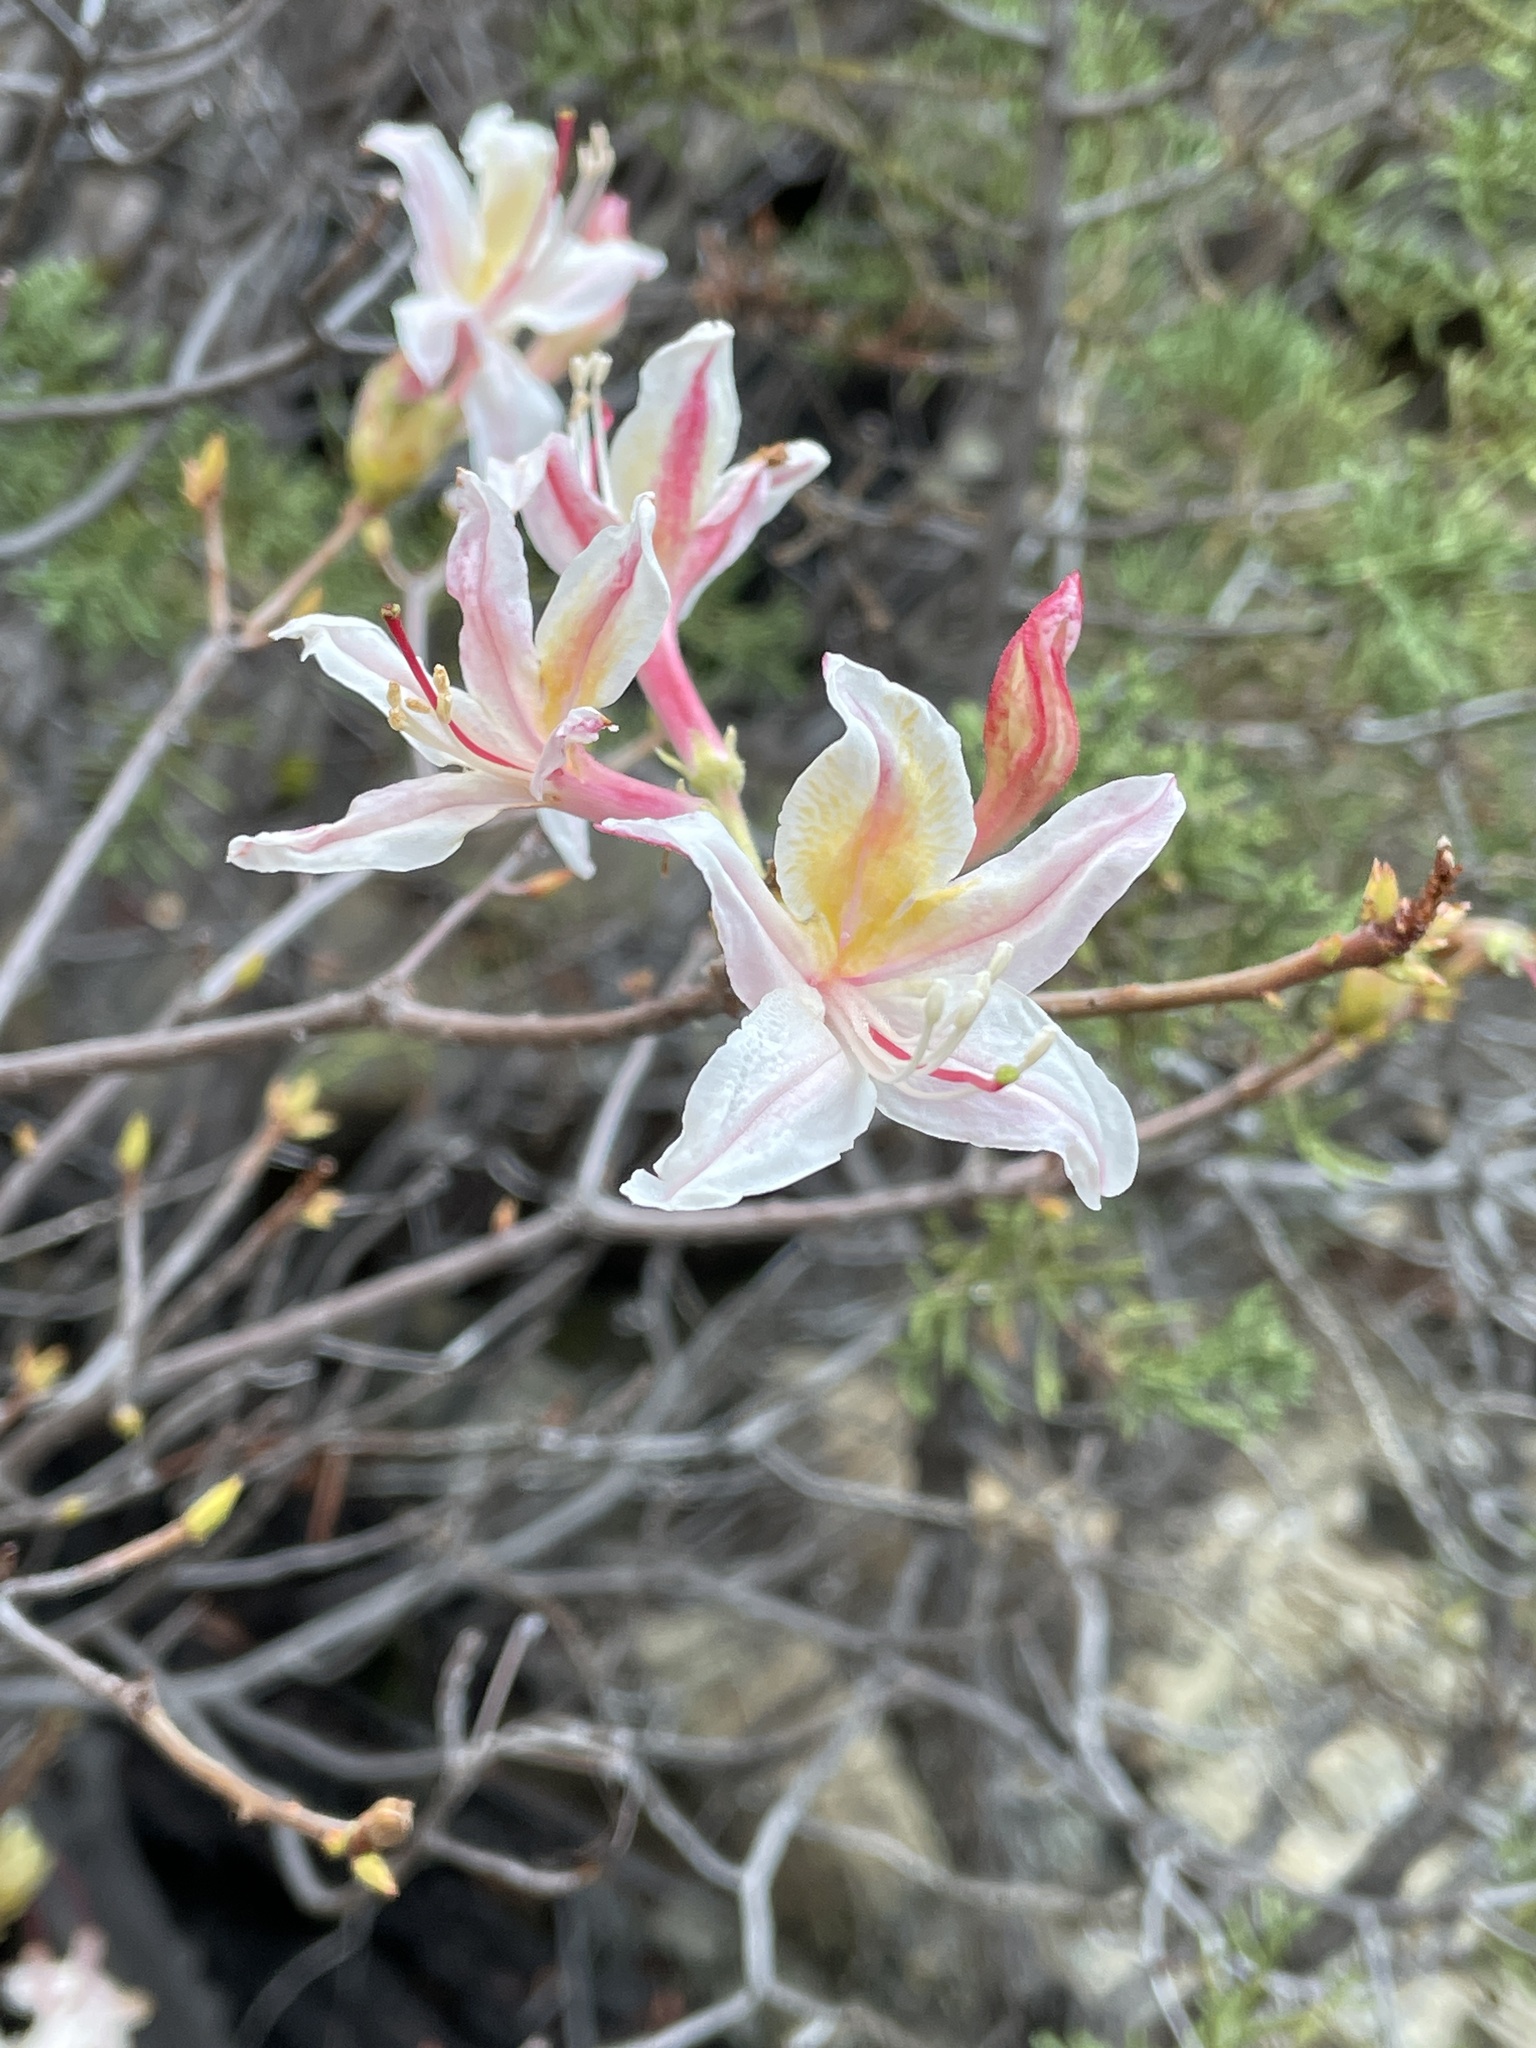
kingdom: Plantae
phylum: Tracheophyta
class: Magnoliopsida
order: Ericales
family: Ericaceae
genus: Rhododendron
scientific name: Rhododendron occidentale
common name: Western azalea
